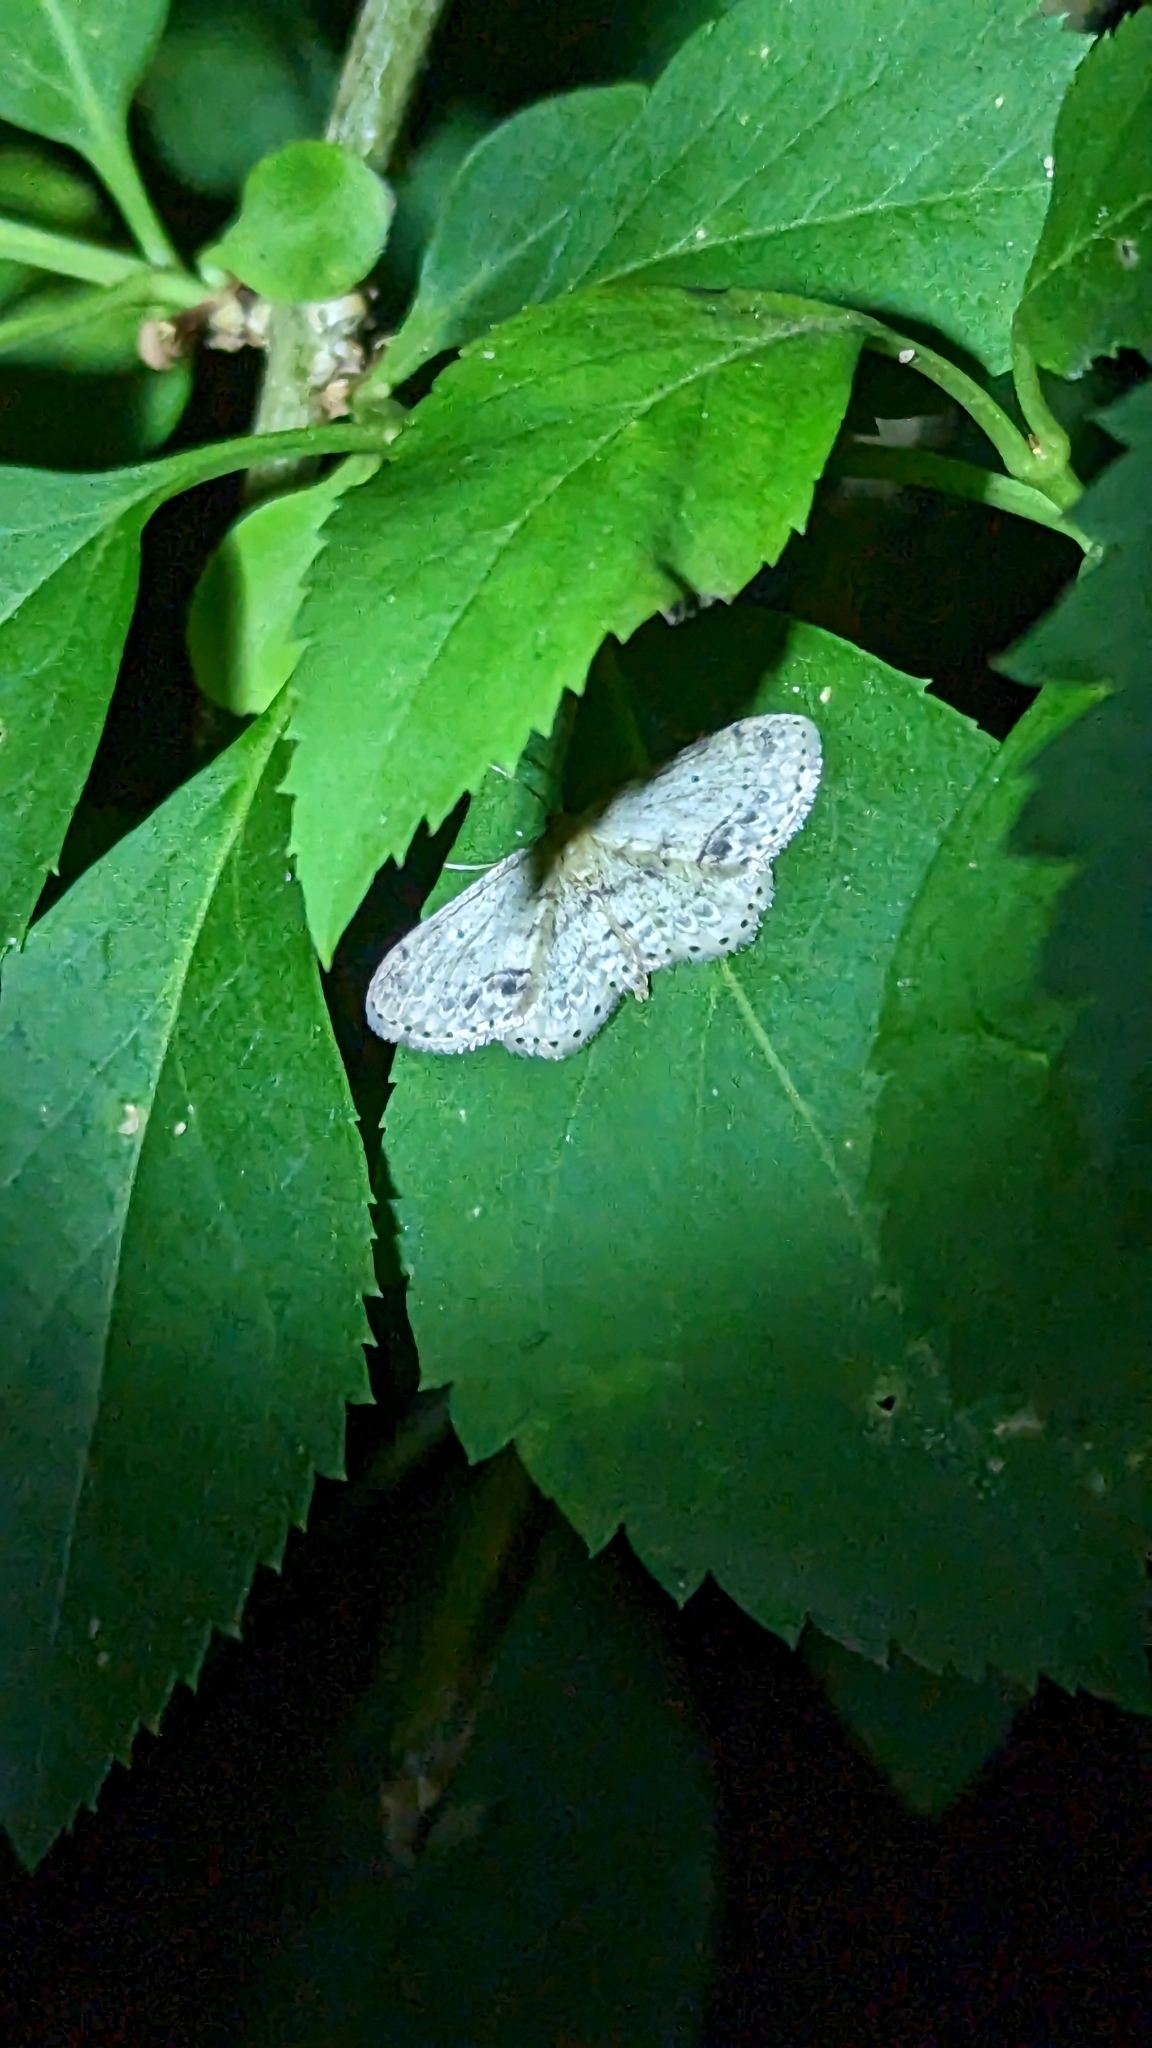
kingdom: Animalia
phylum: Arthropoda
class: Insecta
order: Lepidoptera
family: Geometridae
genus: Idaea
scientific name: Idaea dimidiata
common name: Single-dotted wave
